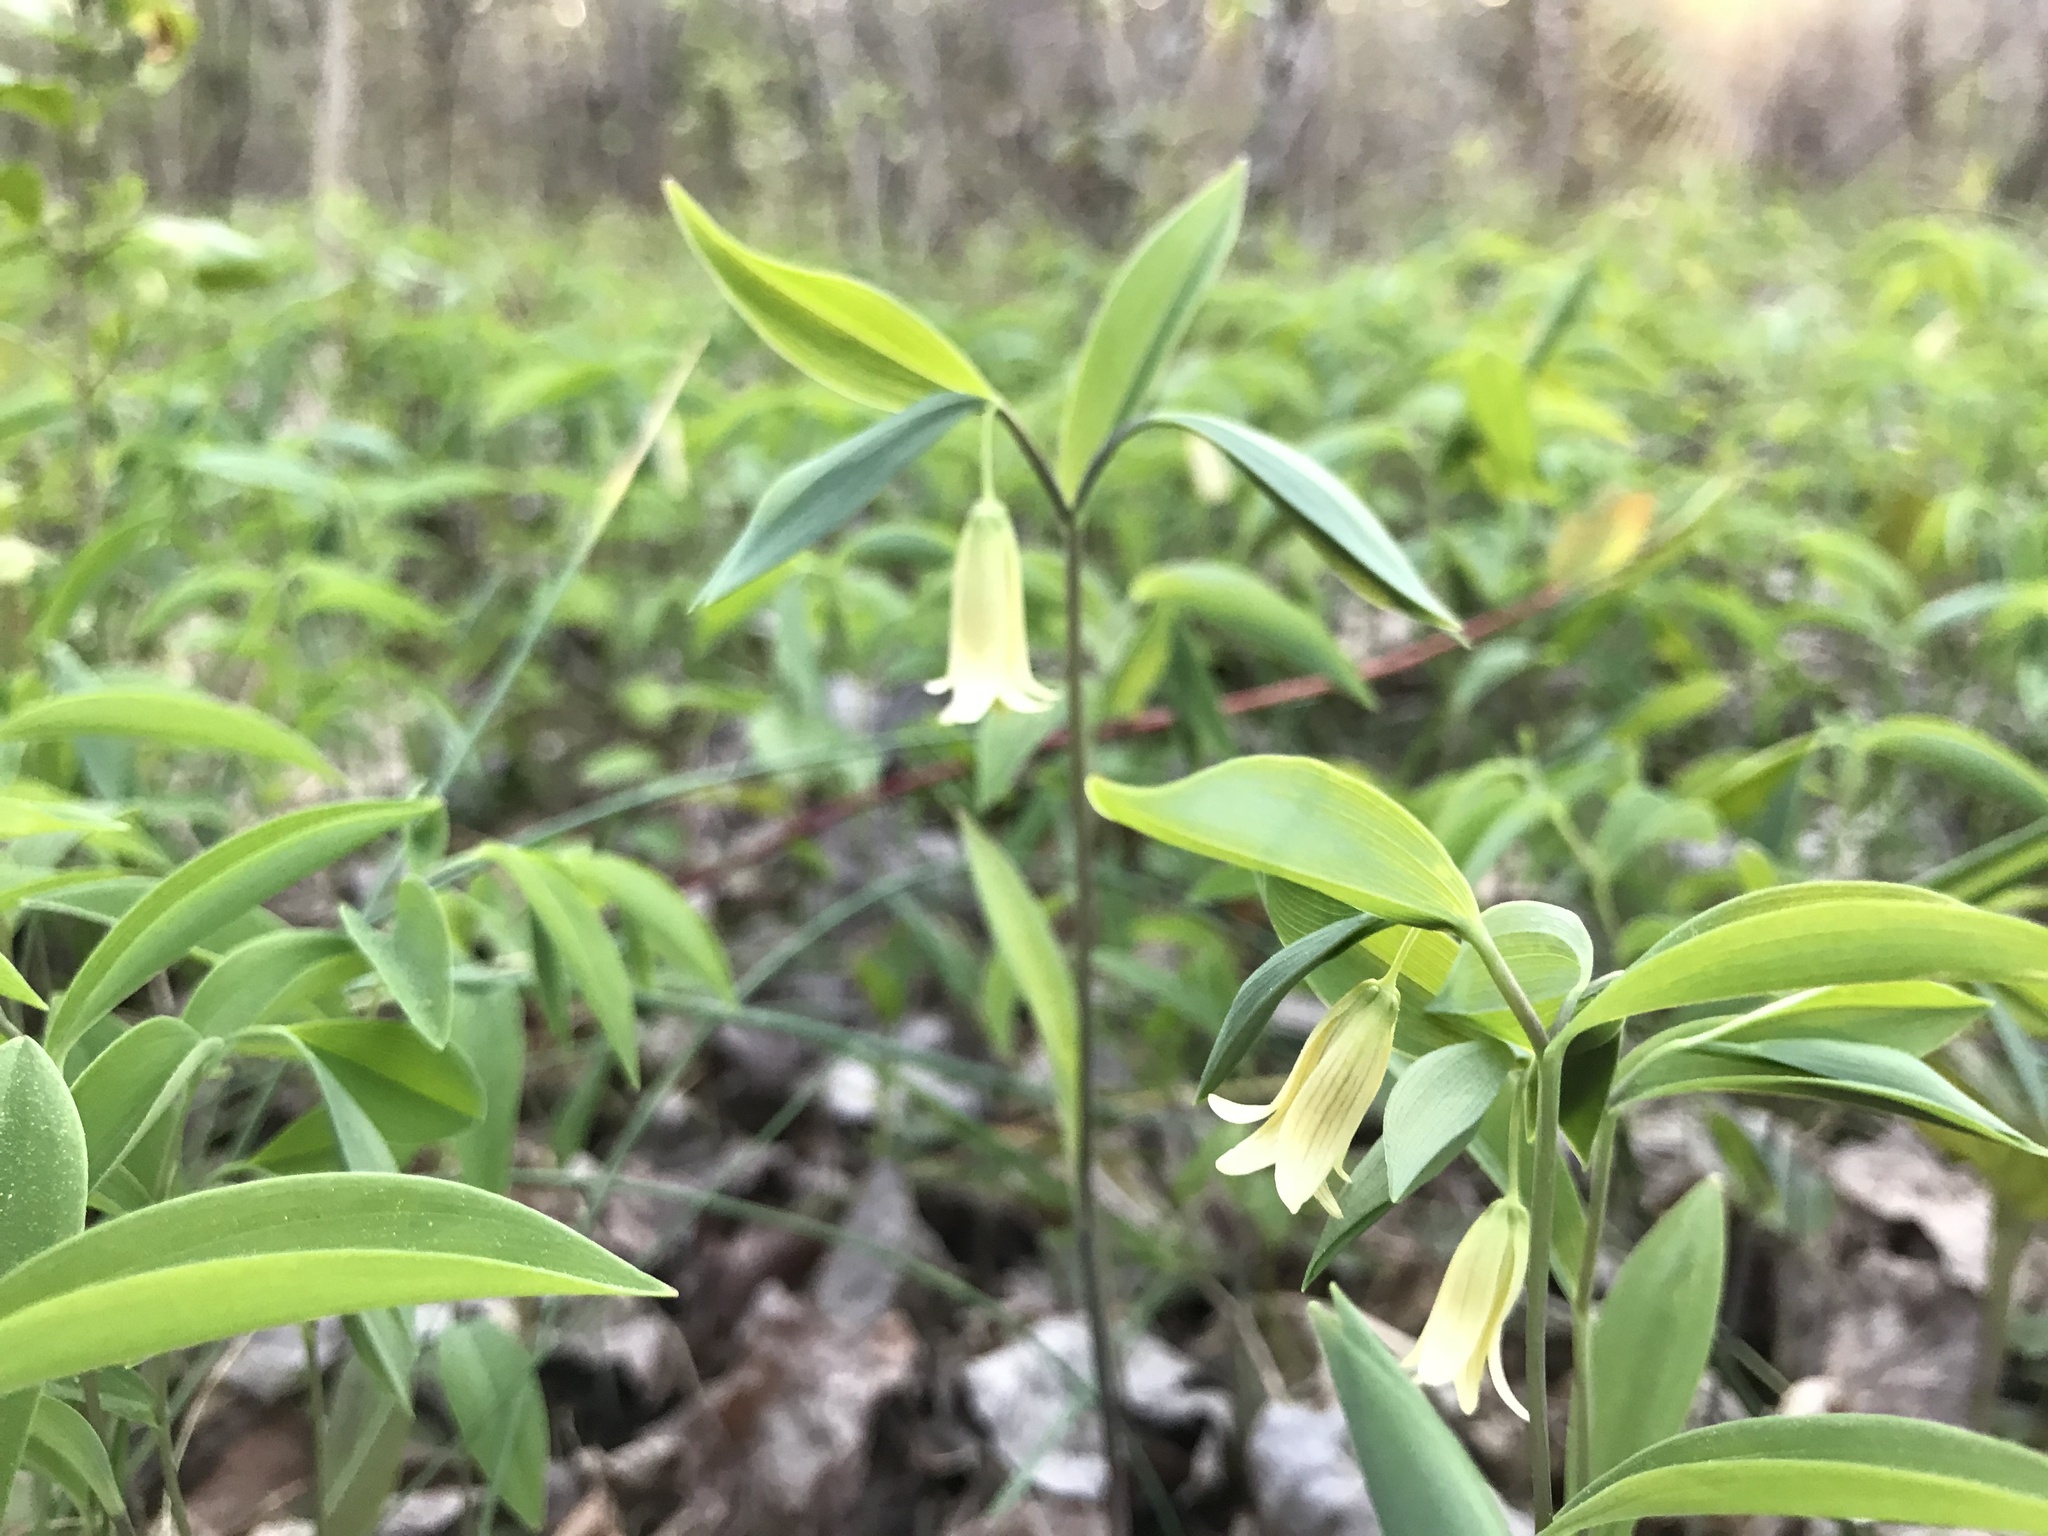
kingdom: Plantae
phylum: Tracheophyta
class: Liliopsida
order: Liliales
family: Colchicaceae
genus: Uvularia
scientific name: Uvularia sessilifolia
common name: Straw-lily
